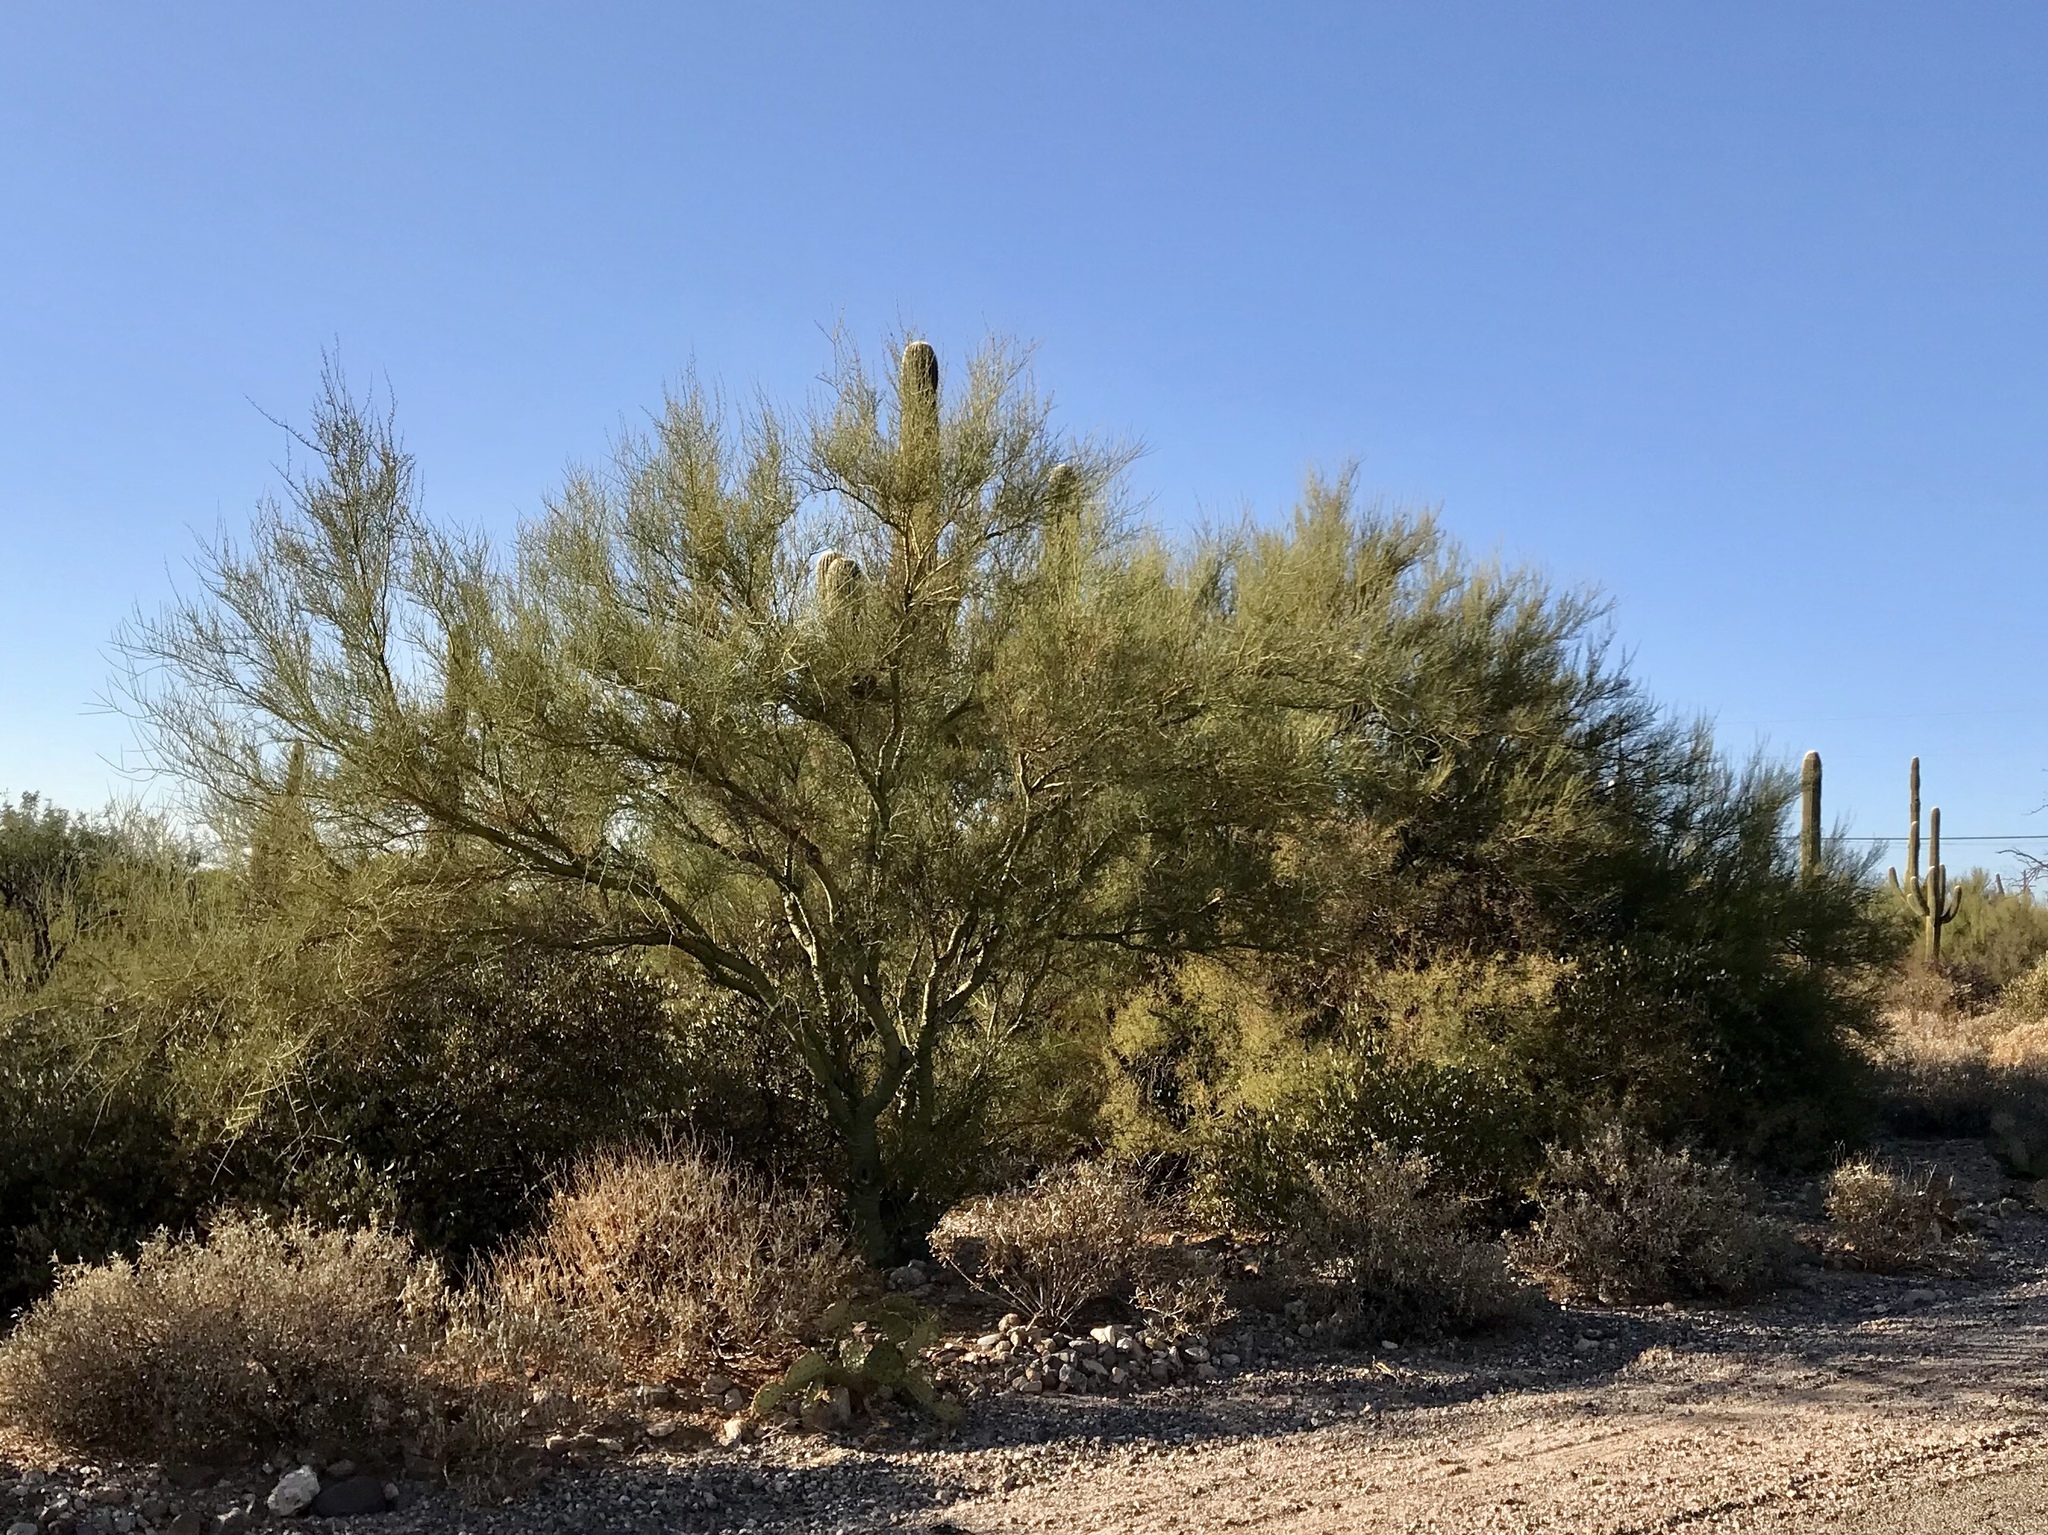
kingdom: Plantae
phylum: Tracheophyta
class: Magnoliopsida
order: Fabales
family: Fabaceae
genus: Parkinsonia
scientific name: Parkinsonia microphylla
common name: Yellow paloverde
